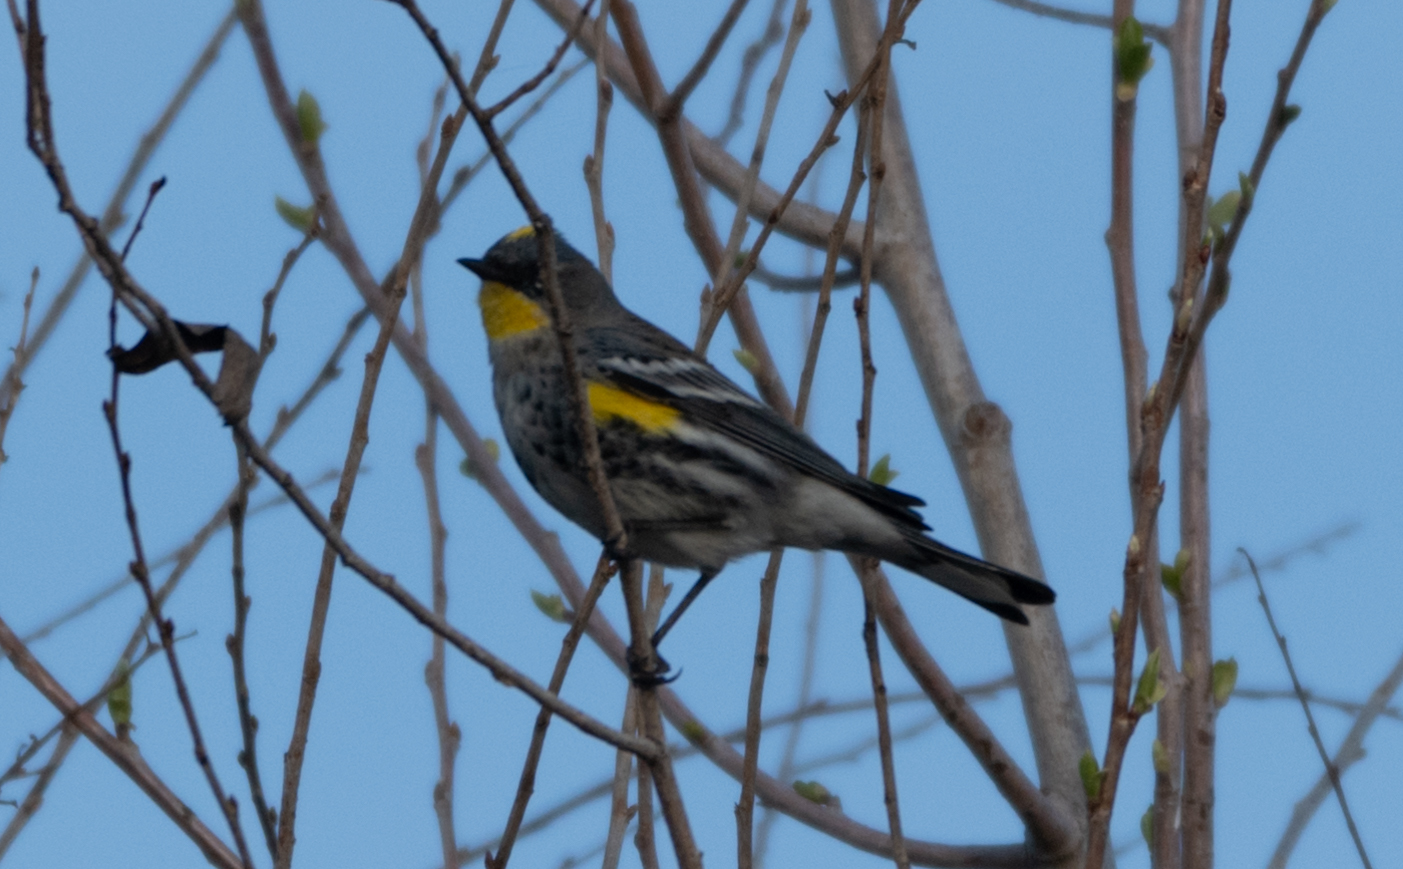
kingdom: Animalia
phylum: Chordata
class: Aves
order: Passeriformes
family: Parulidae
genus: Setophaga
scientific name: Setophaga auduboni
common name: Audubon's warbler
